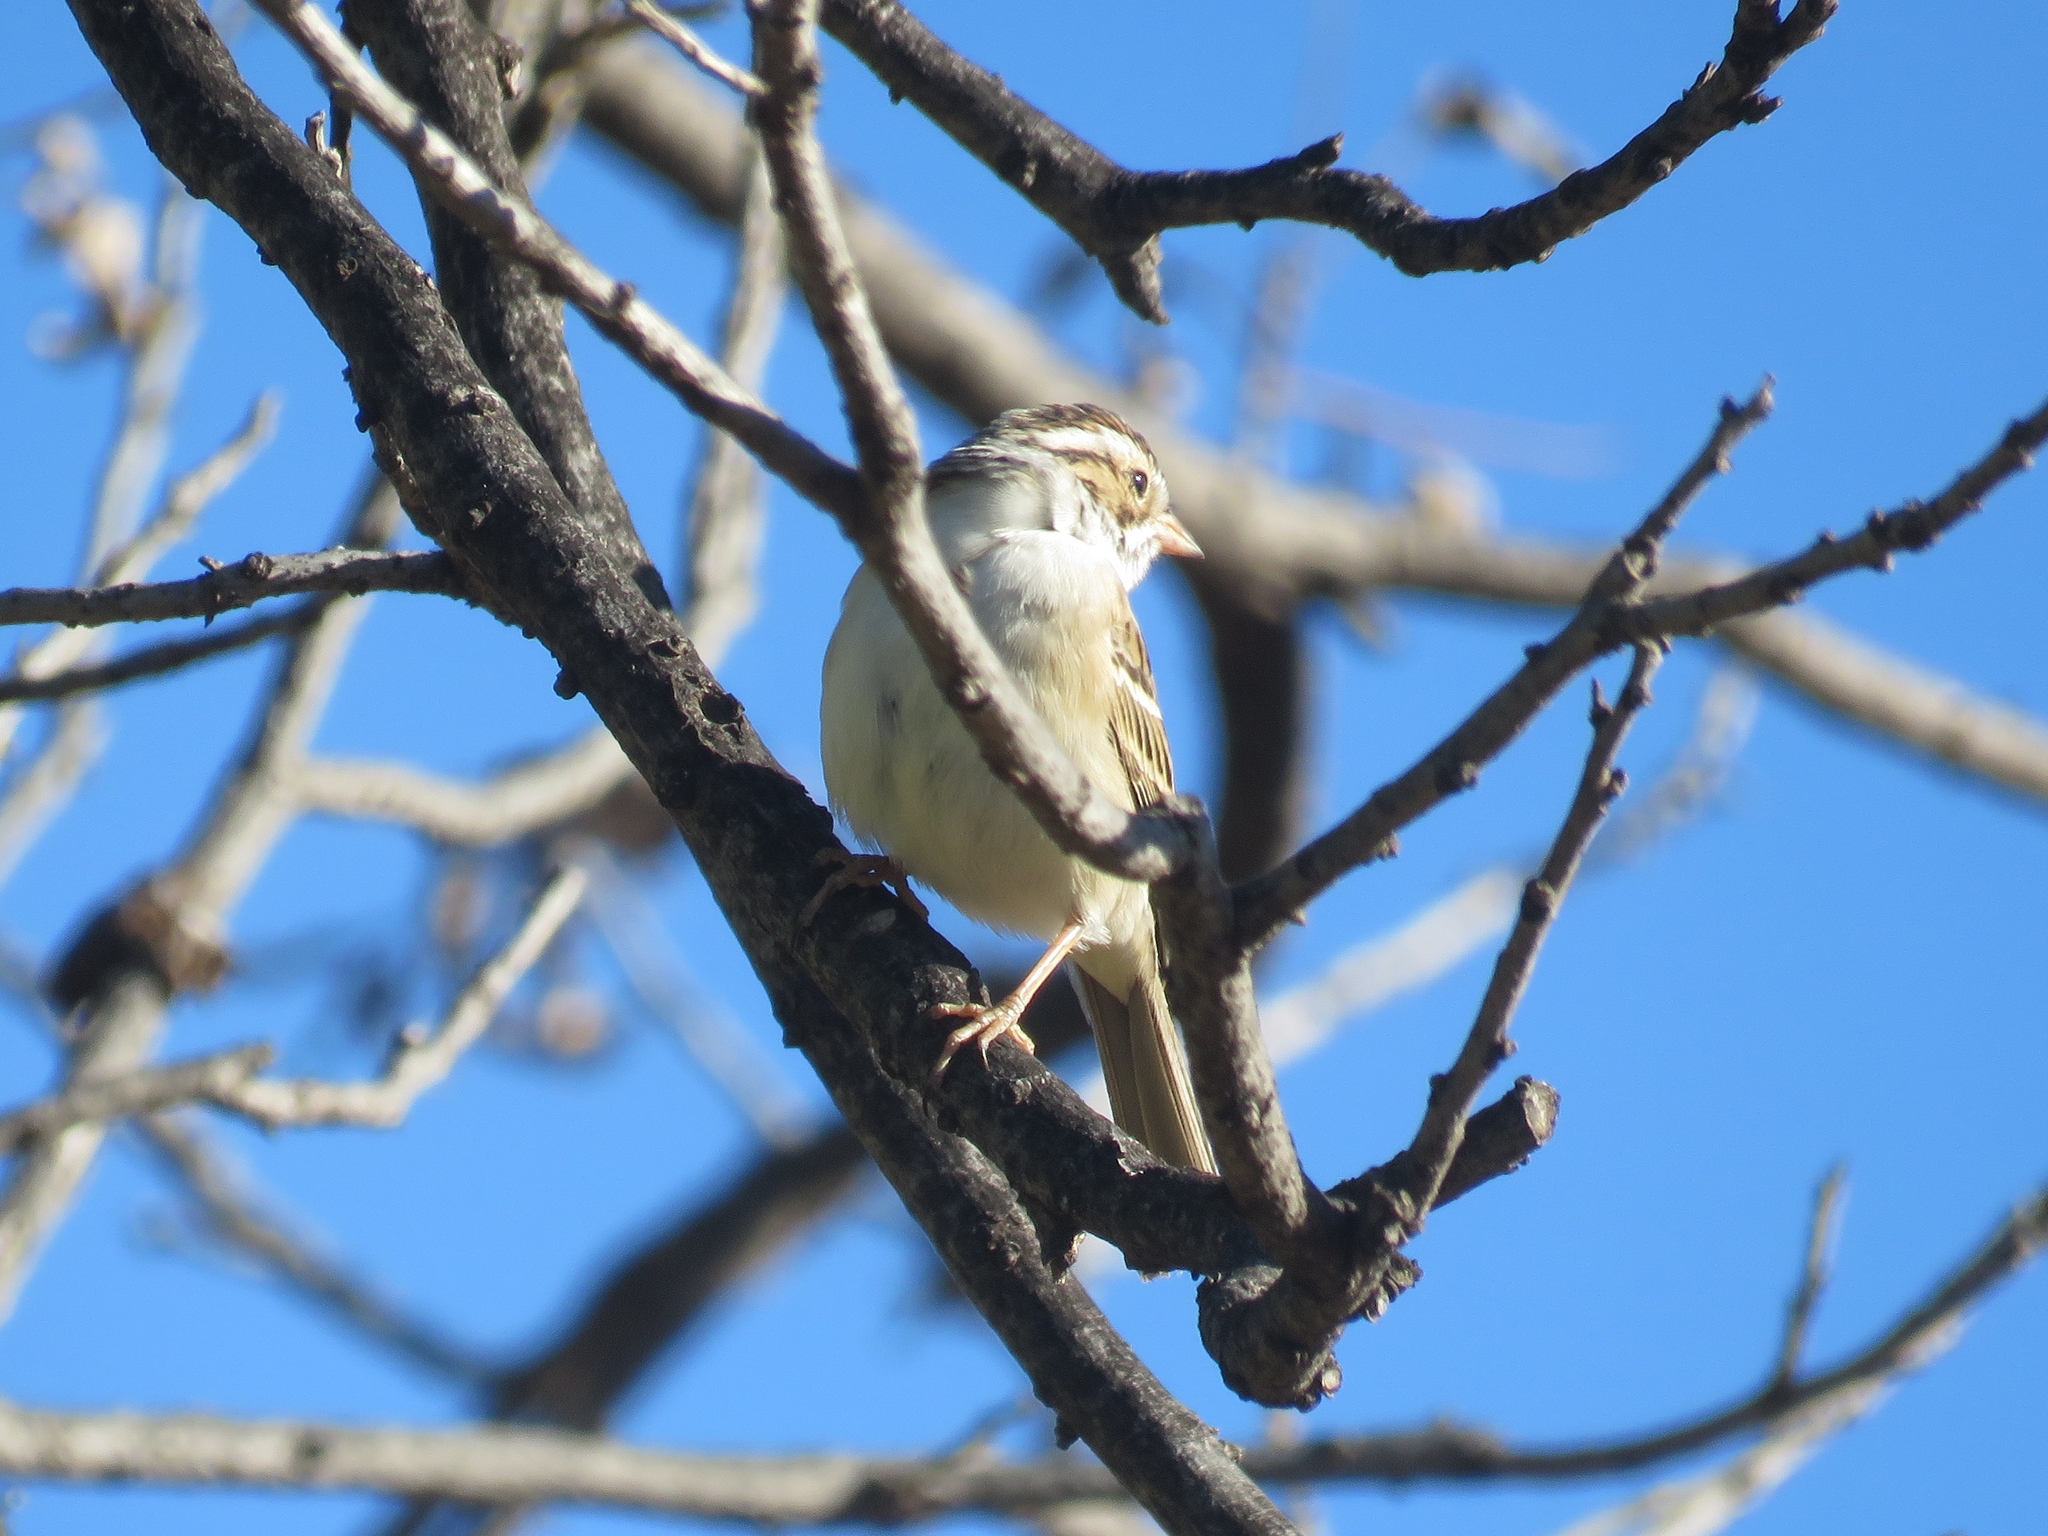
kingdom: Animalia
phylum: Chordata
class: Aves
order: Passeriformes
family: Passerellidae
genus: Spizella
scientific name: Spizella pallida
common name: Clay-colored sparrow
